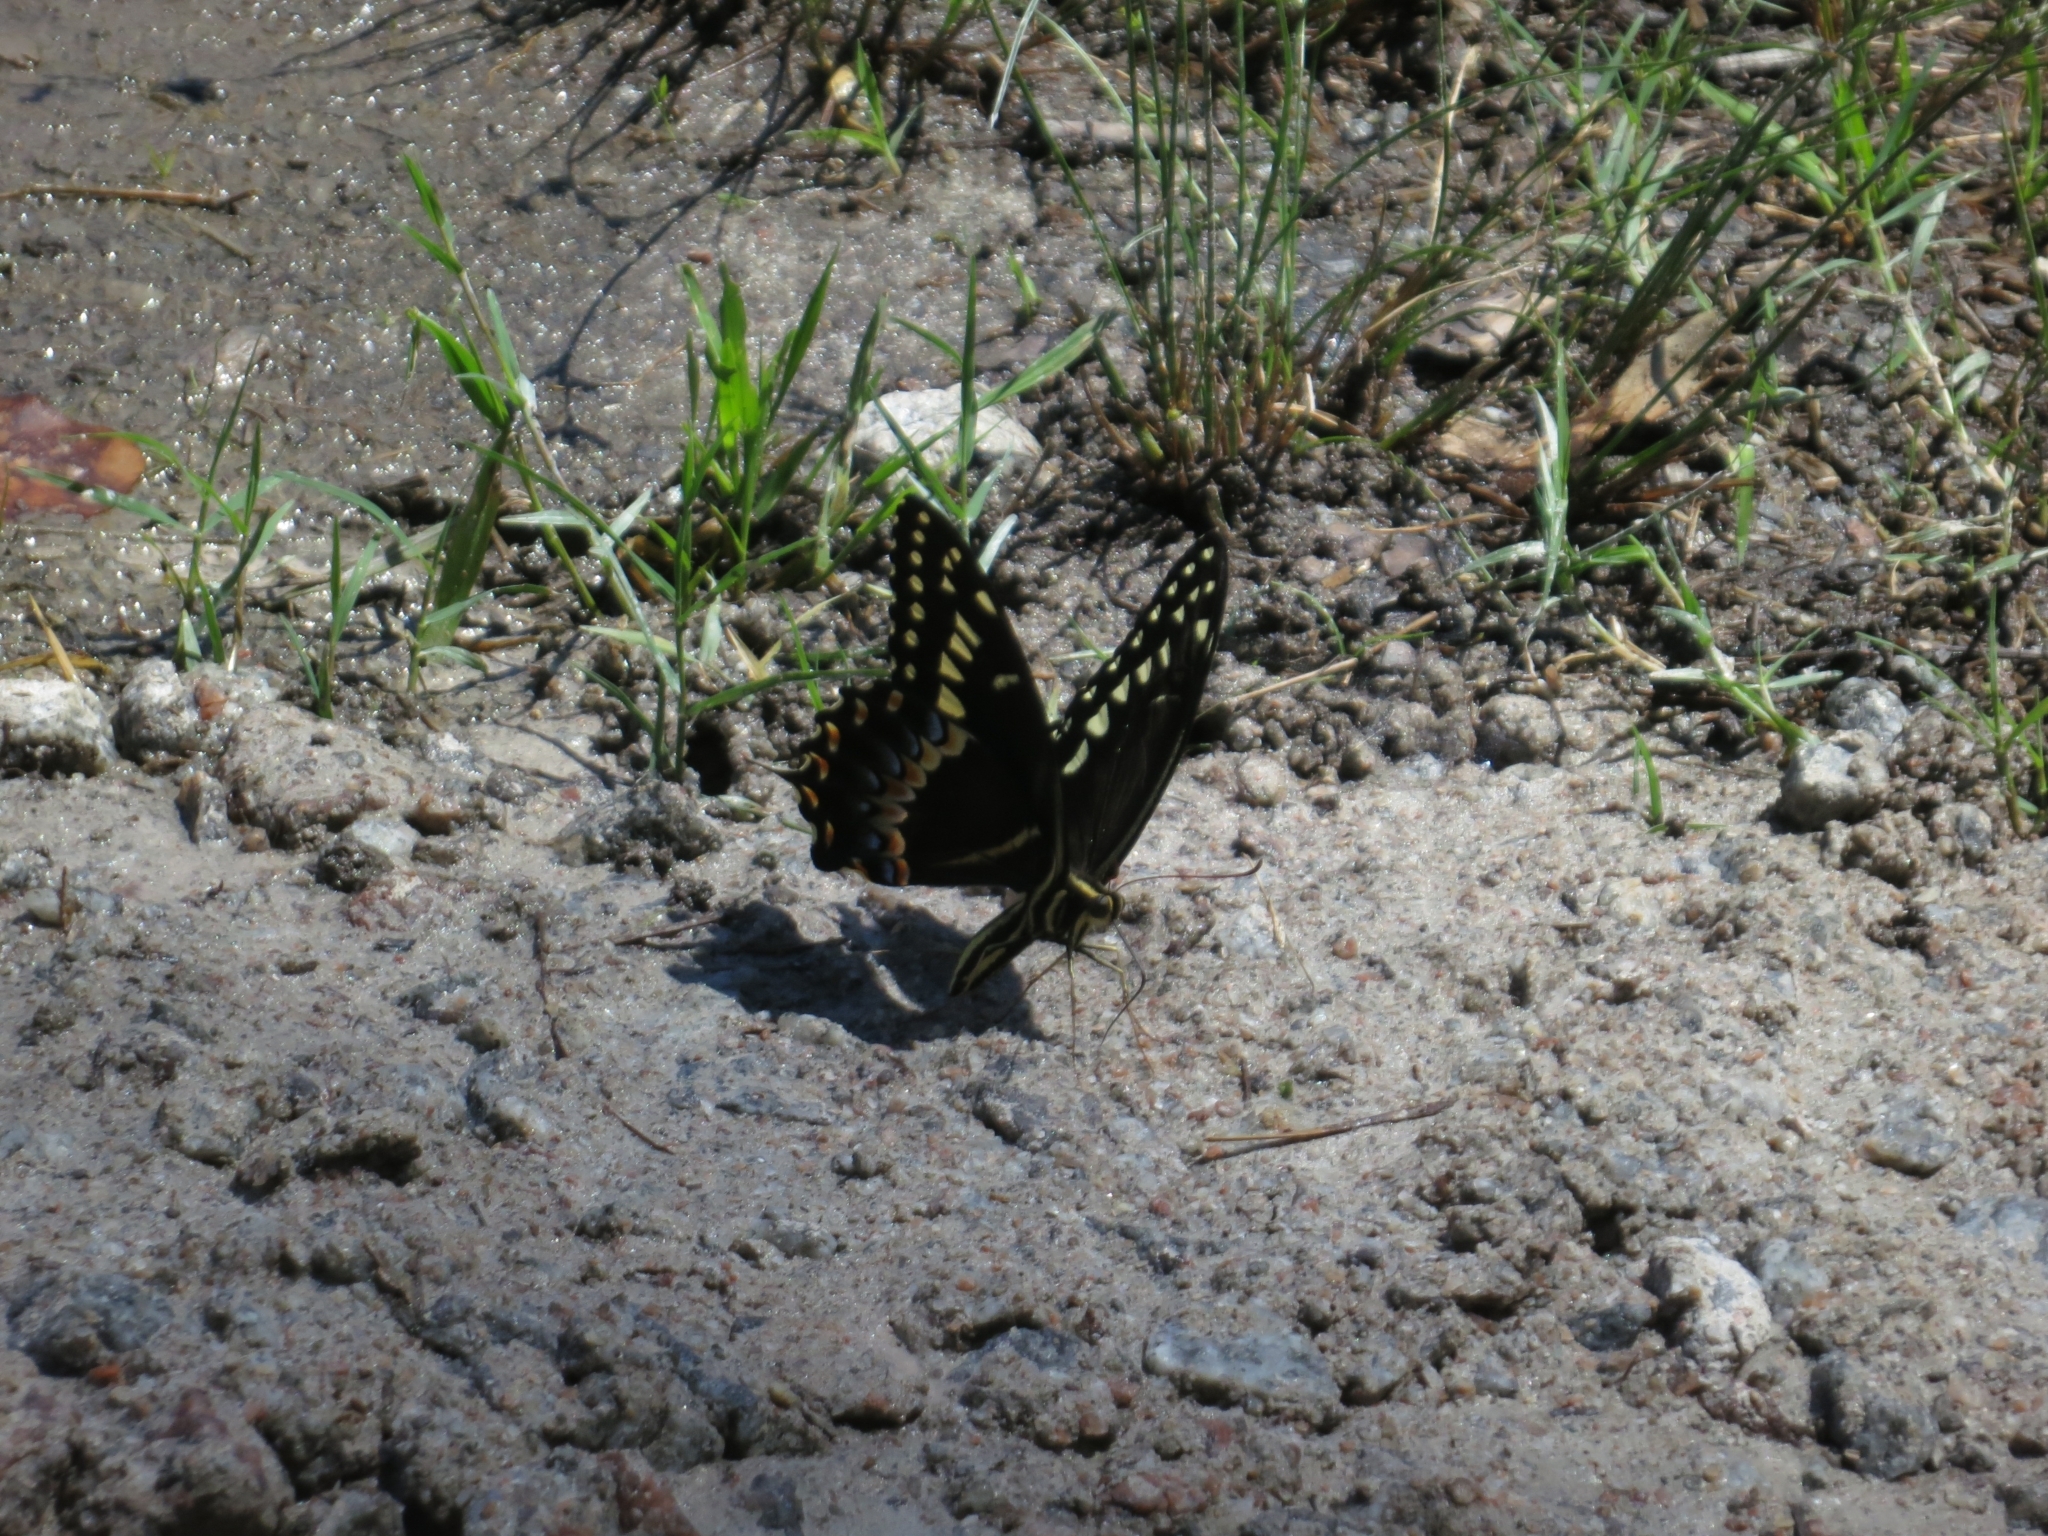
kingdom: Animalia
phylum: Arthropoda
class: Insecta
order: Lepidoptera
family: Papilionidae
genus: Papilio
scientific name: Papilio palamedes
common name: Palamedes swallowtail
